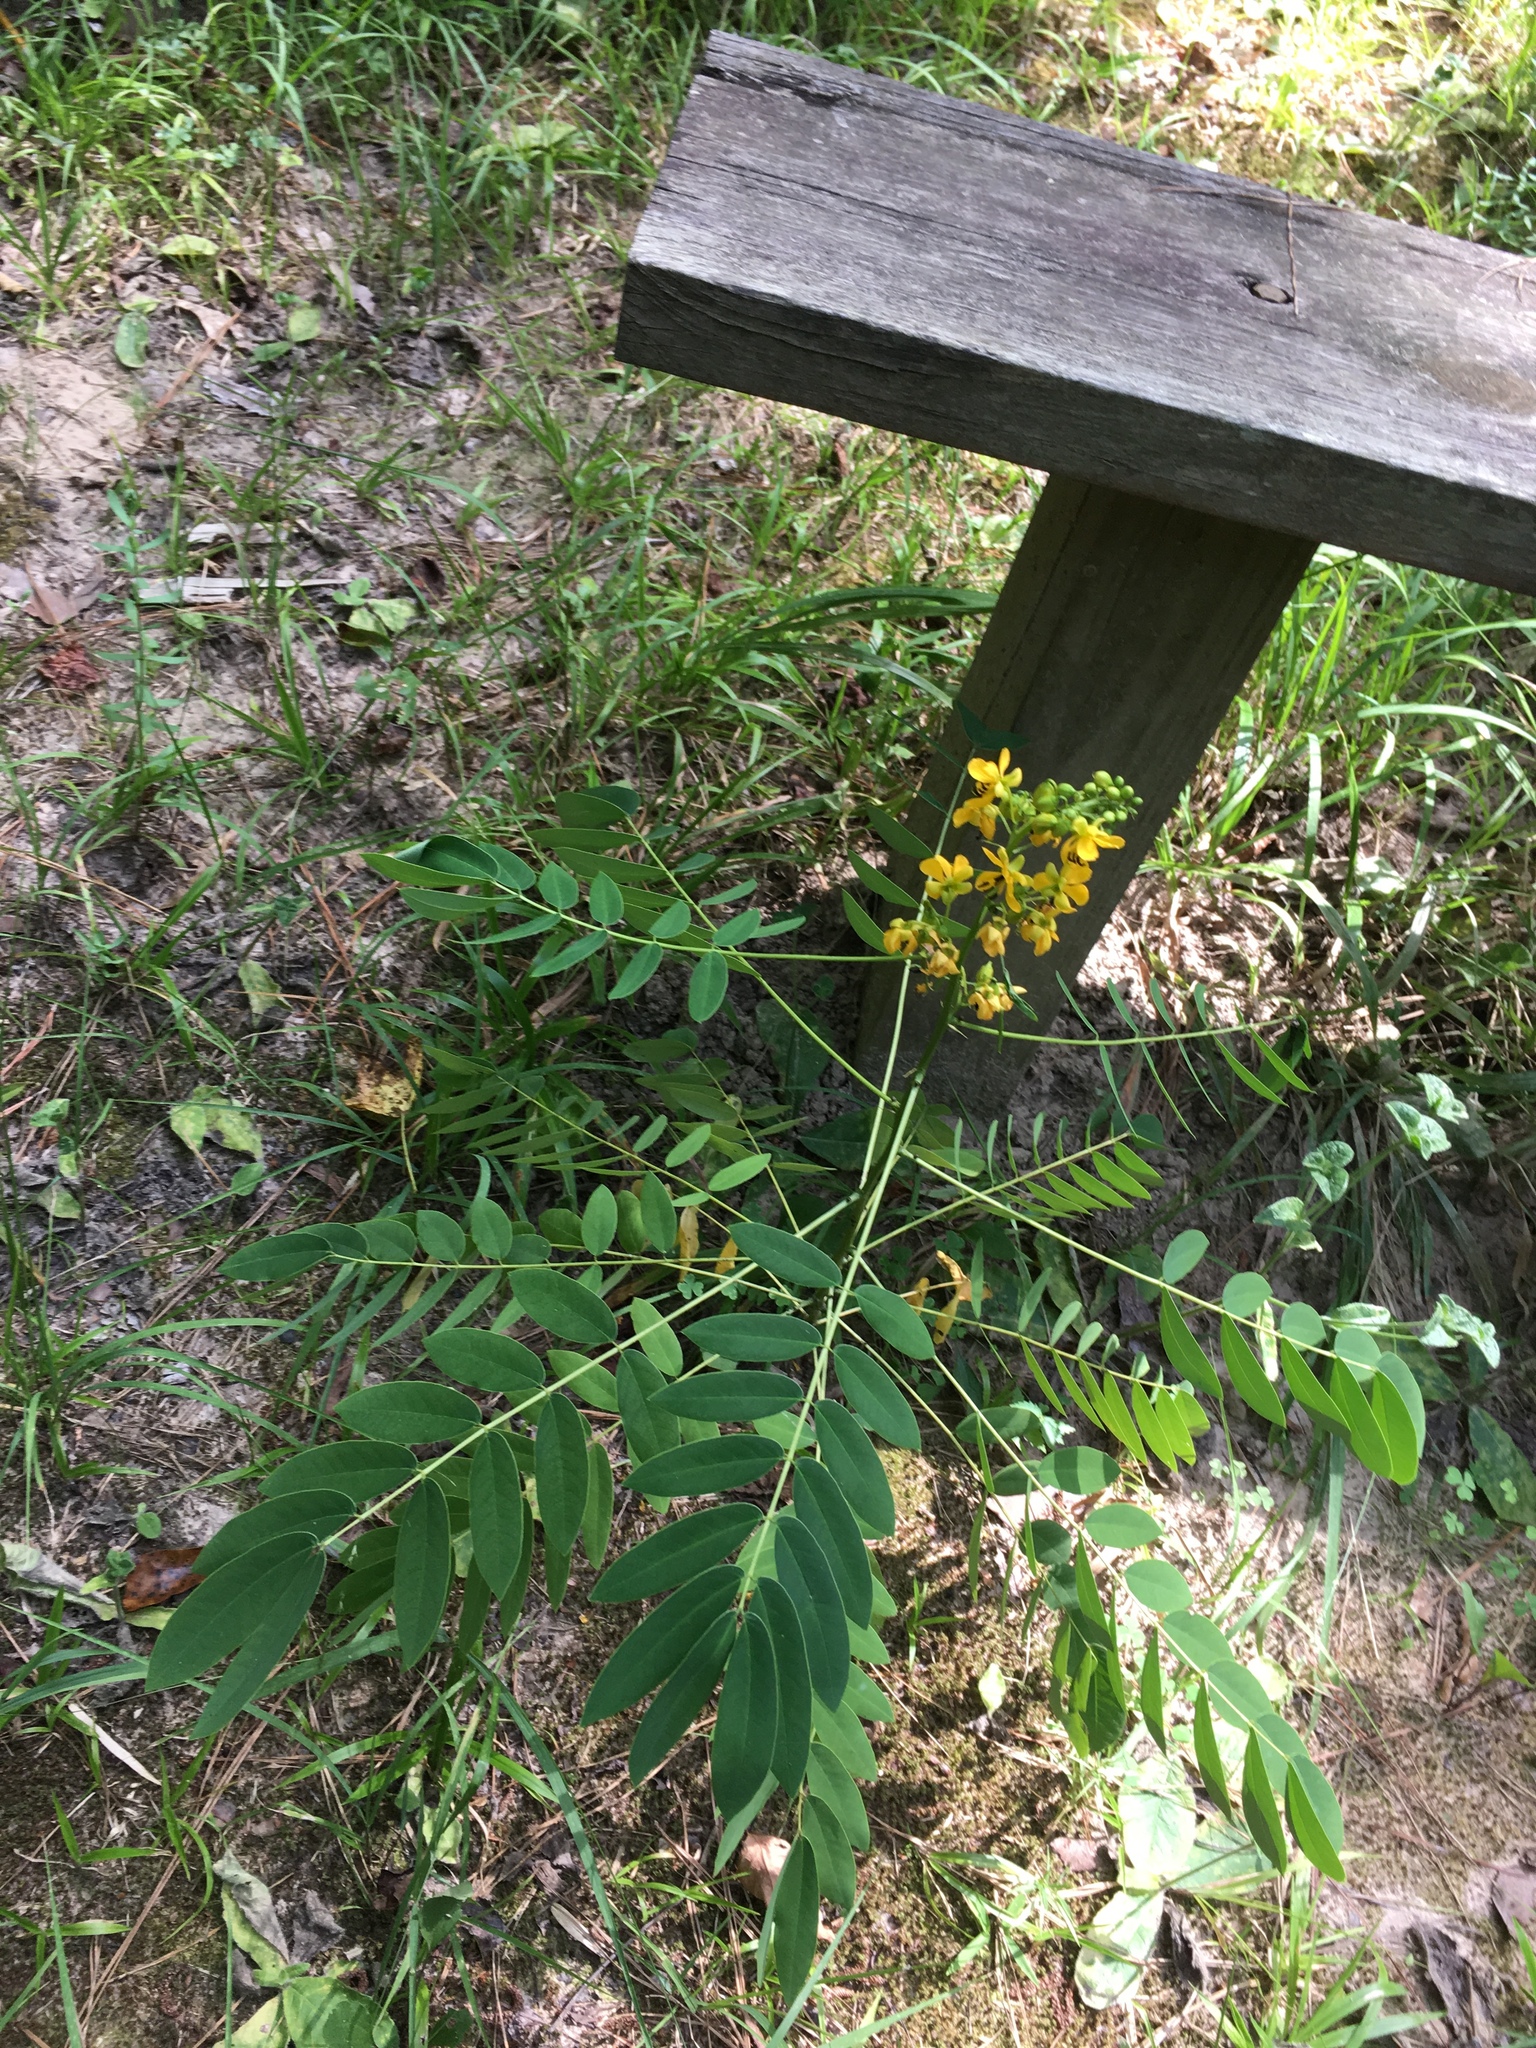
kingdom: Plantae
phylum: Tracheophyta
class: Magnoliopsida
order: Fabales
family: Fabaceae
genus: Senna
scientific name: Senna marilandica
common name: American senna
